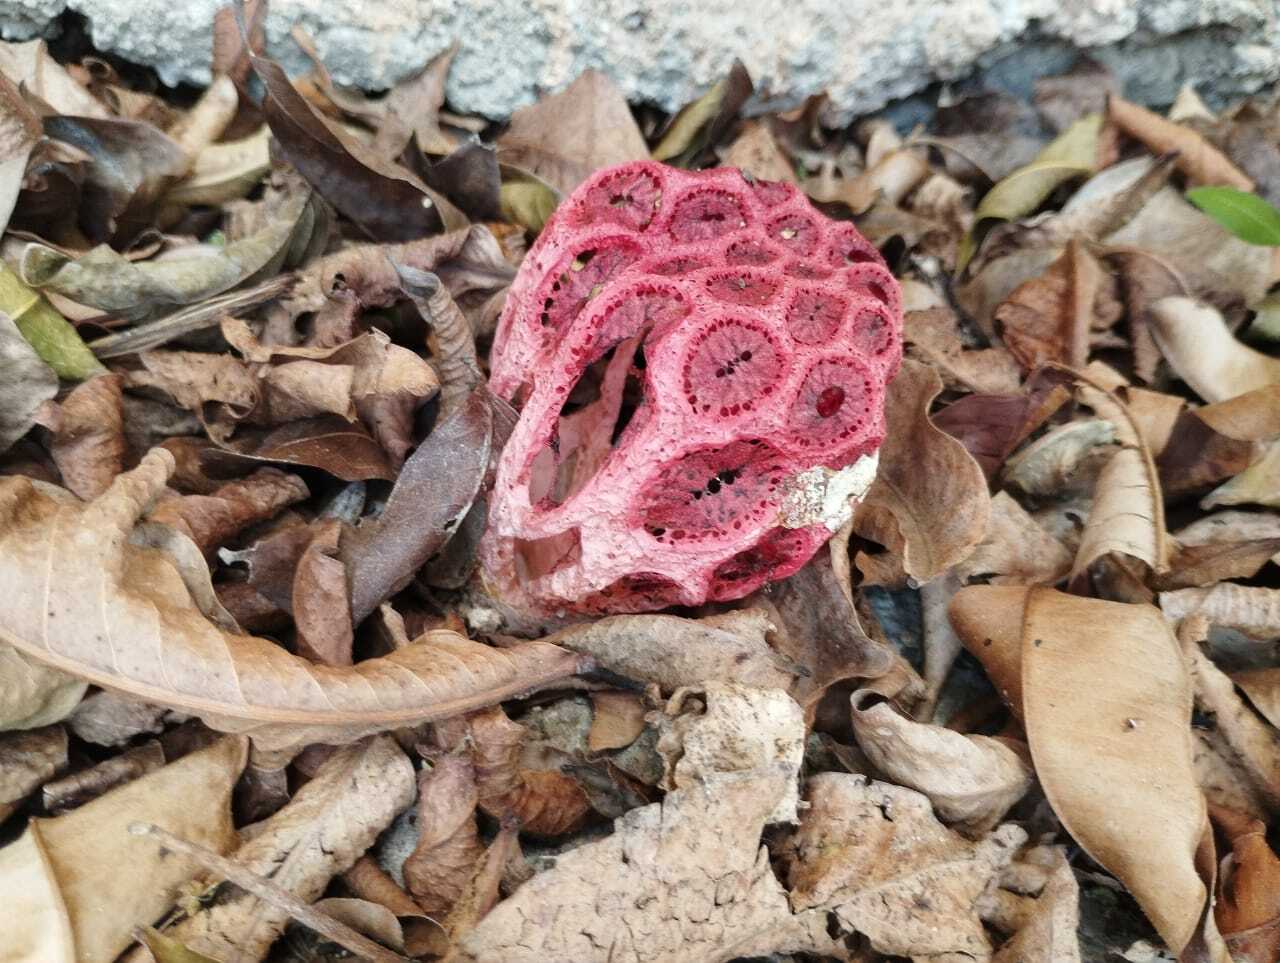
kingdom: Fungi
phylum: Basidiomycota
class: Agaricomycetes
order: Phallales
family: Phallaceae
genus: Clathrus
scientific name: Clathrus crispatus
